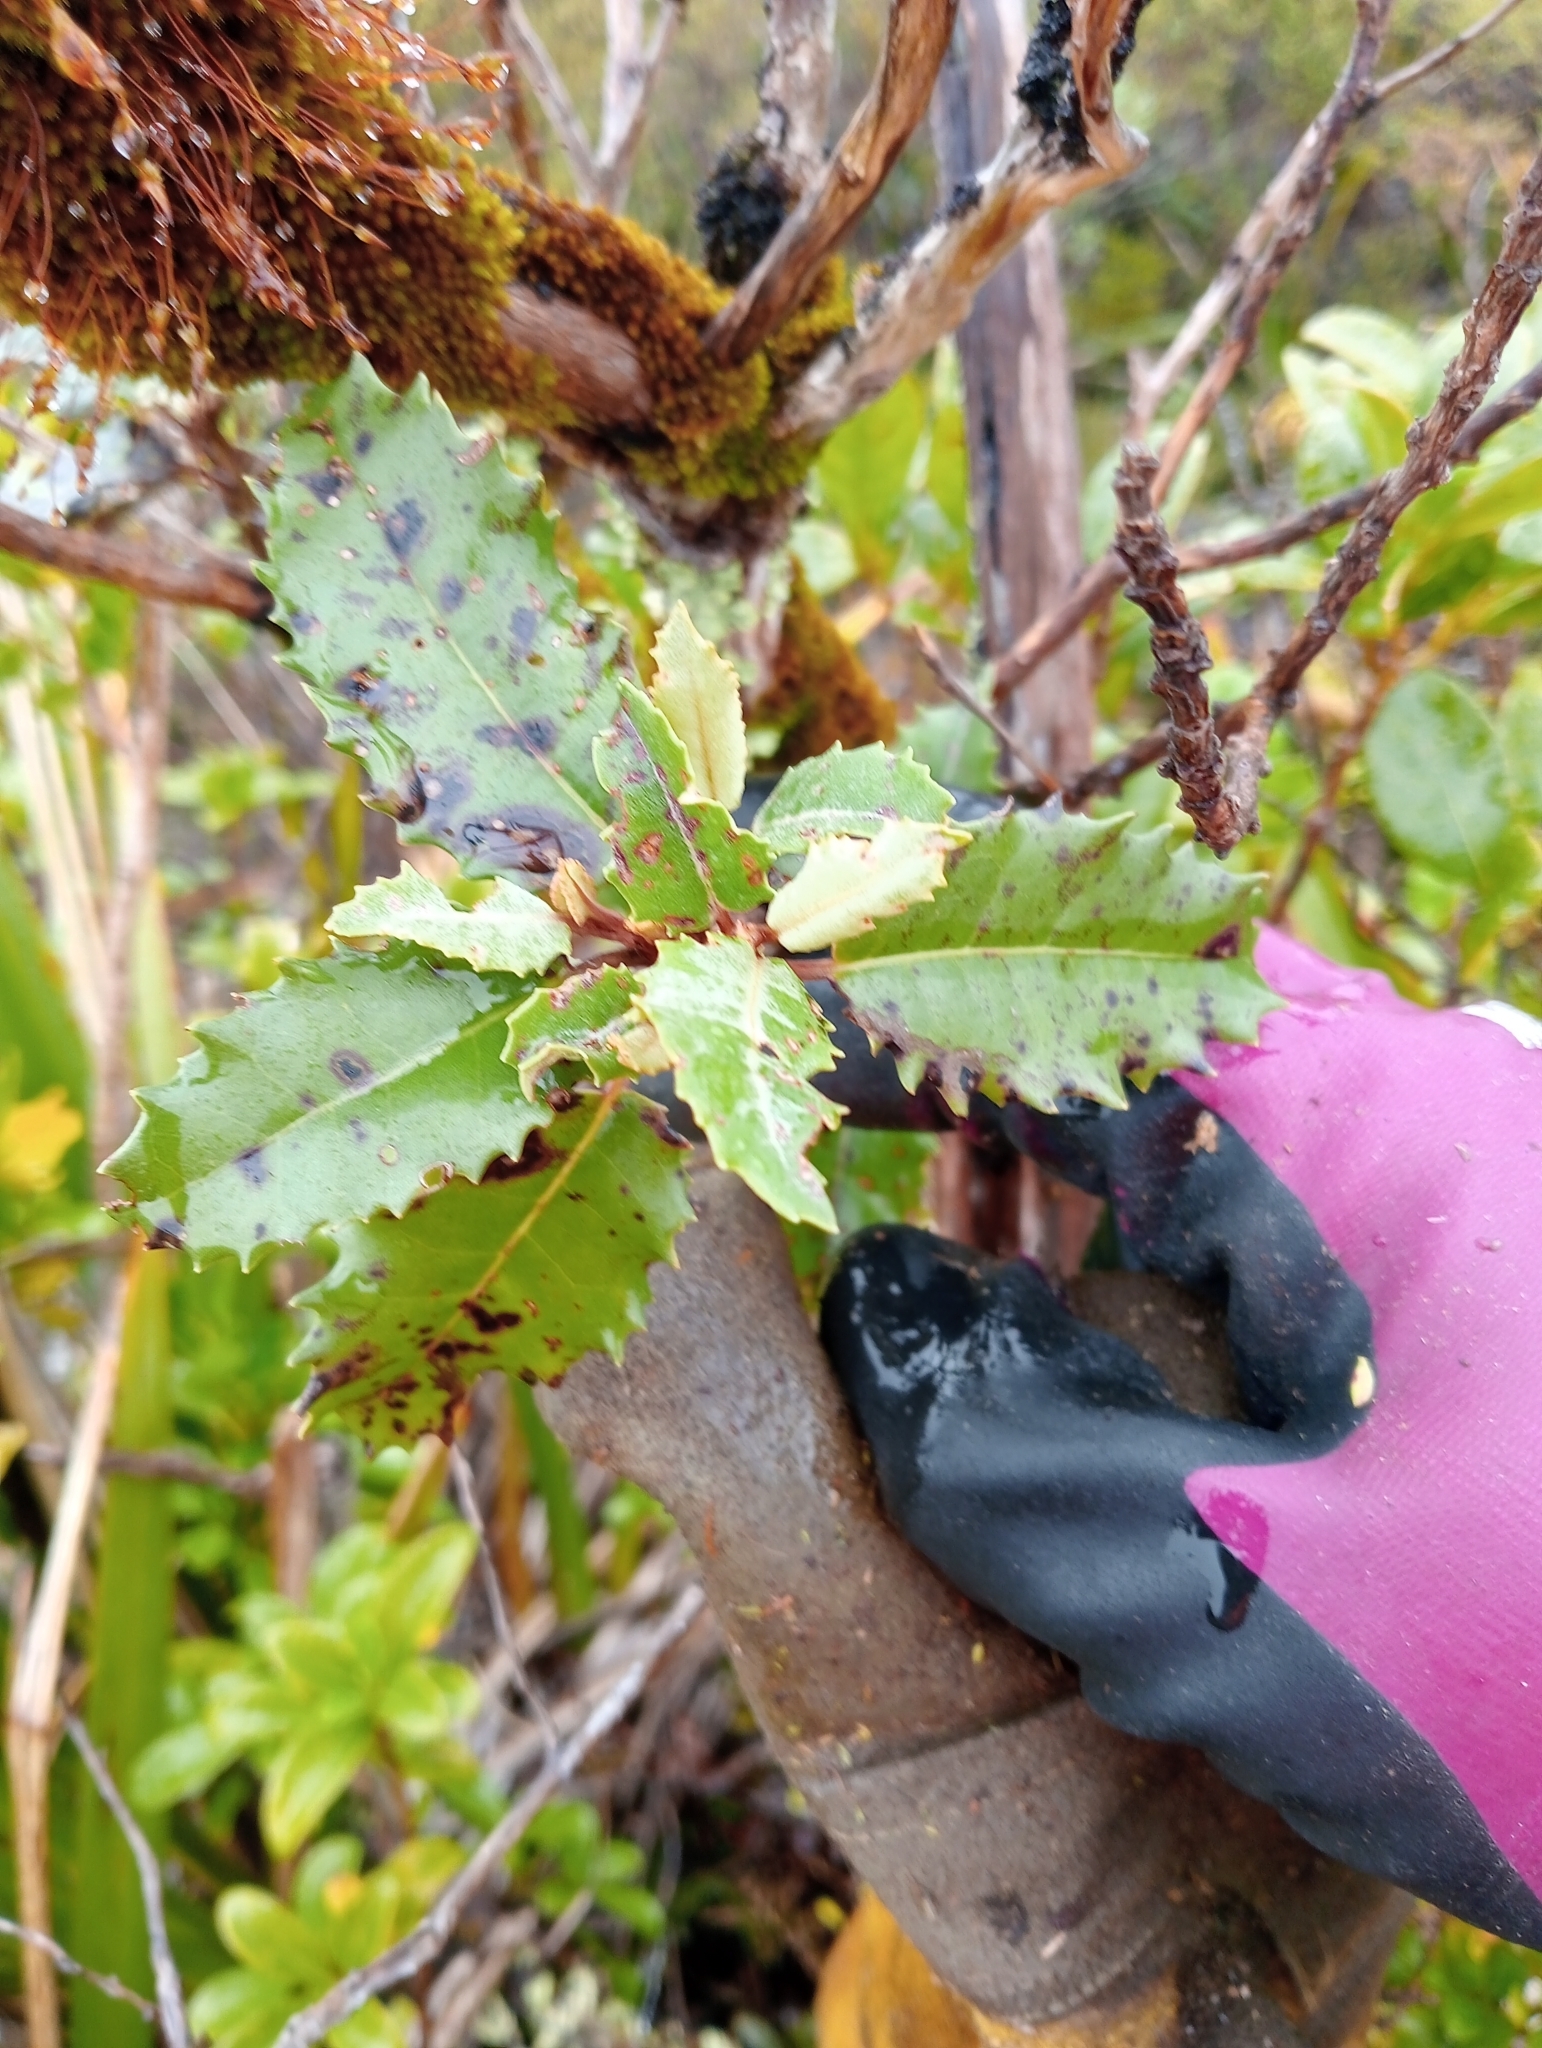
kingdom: Plantae
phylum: Tracheophyta
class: Magnoliopsida
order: Asterales
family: Asteraceae
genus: Olearia
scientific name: Olearia macrodonta
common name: New zealand holly
